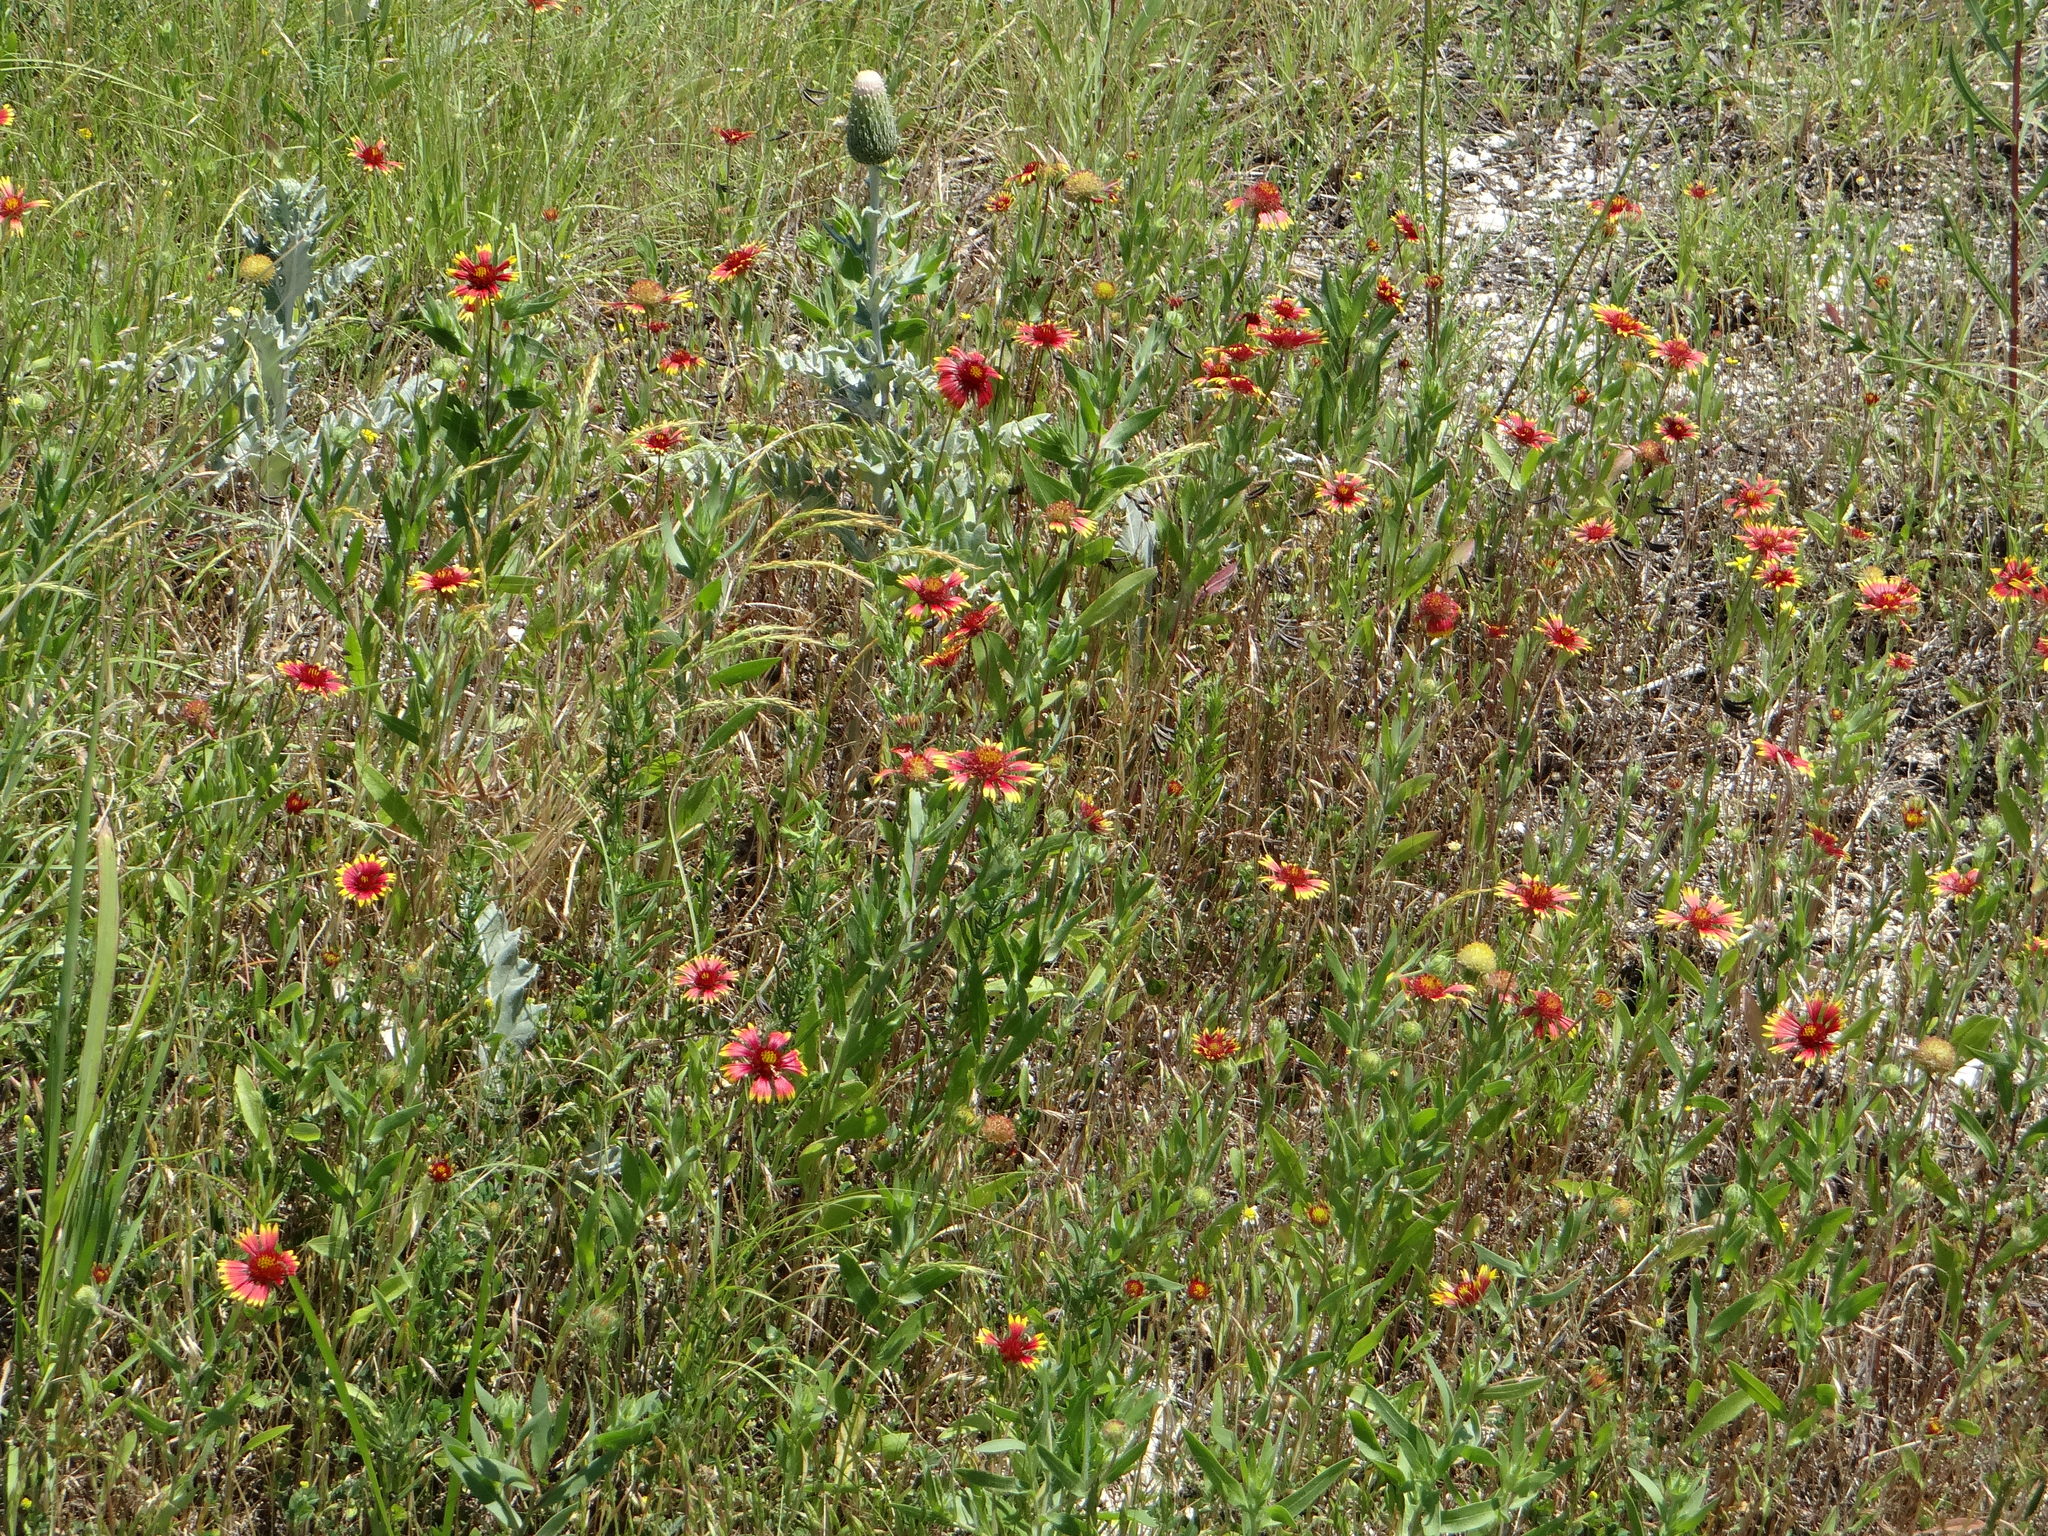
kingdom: Plantae
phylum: Tracheophyta
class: Magnoliopsida
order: Asterales
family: Asteraceae
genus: Gaillardia
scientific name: Gaillardia pulchella
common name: Firewheel
